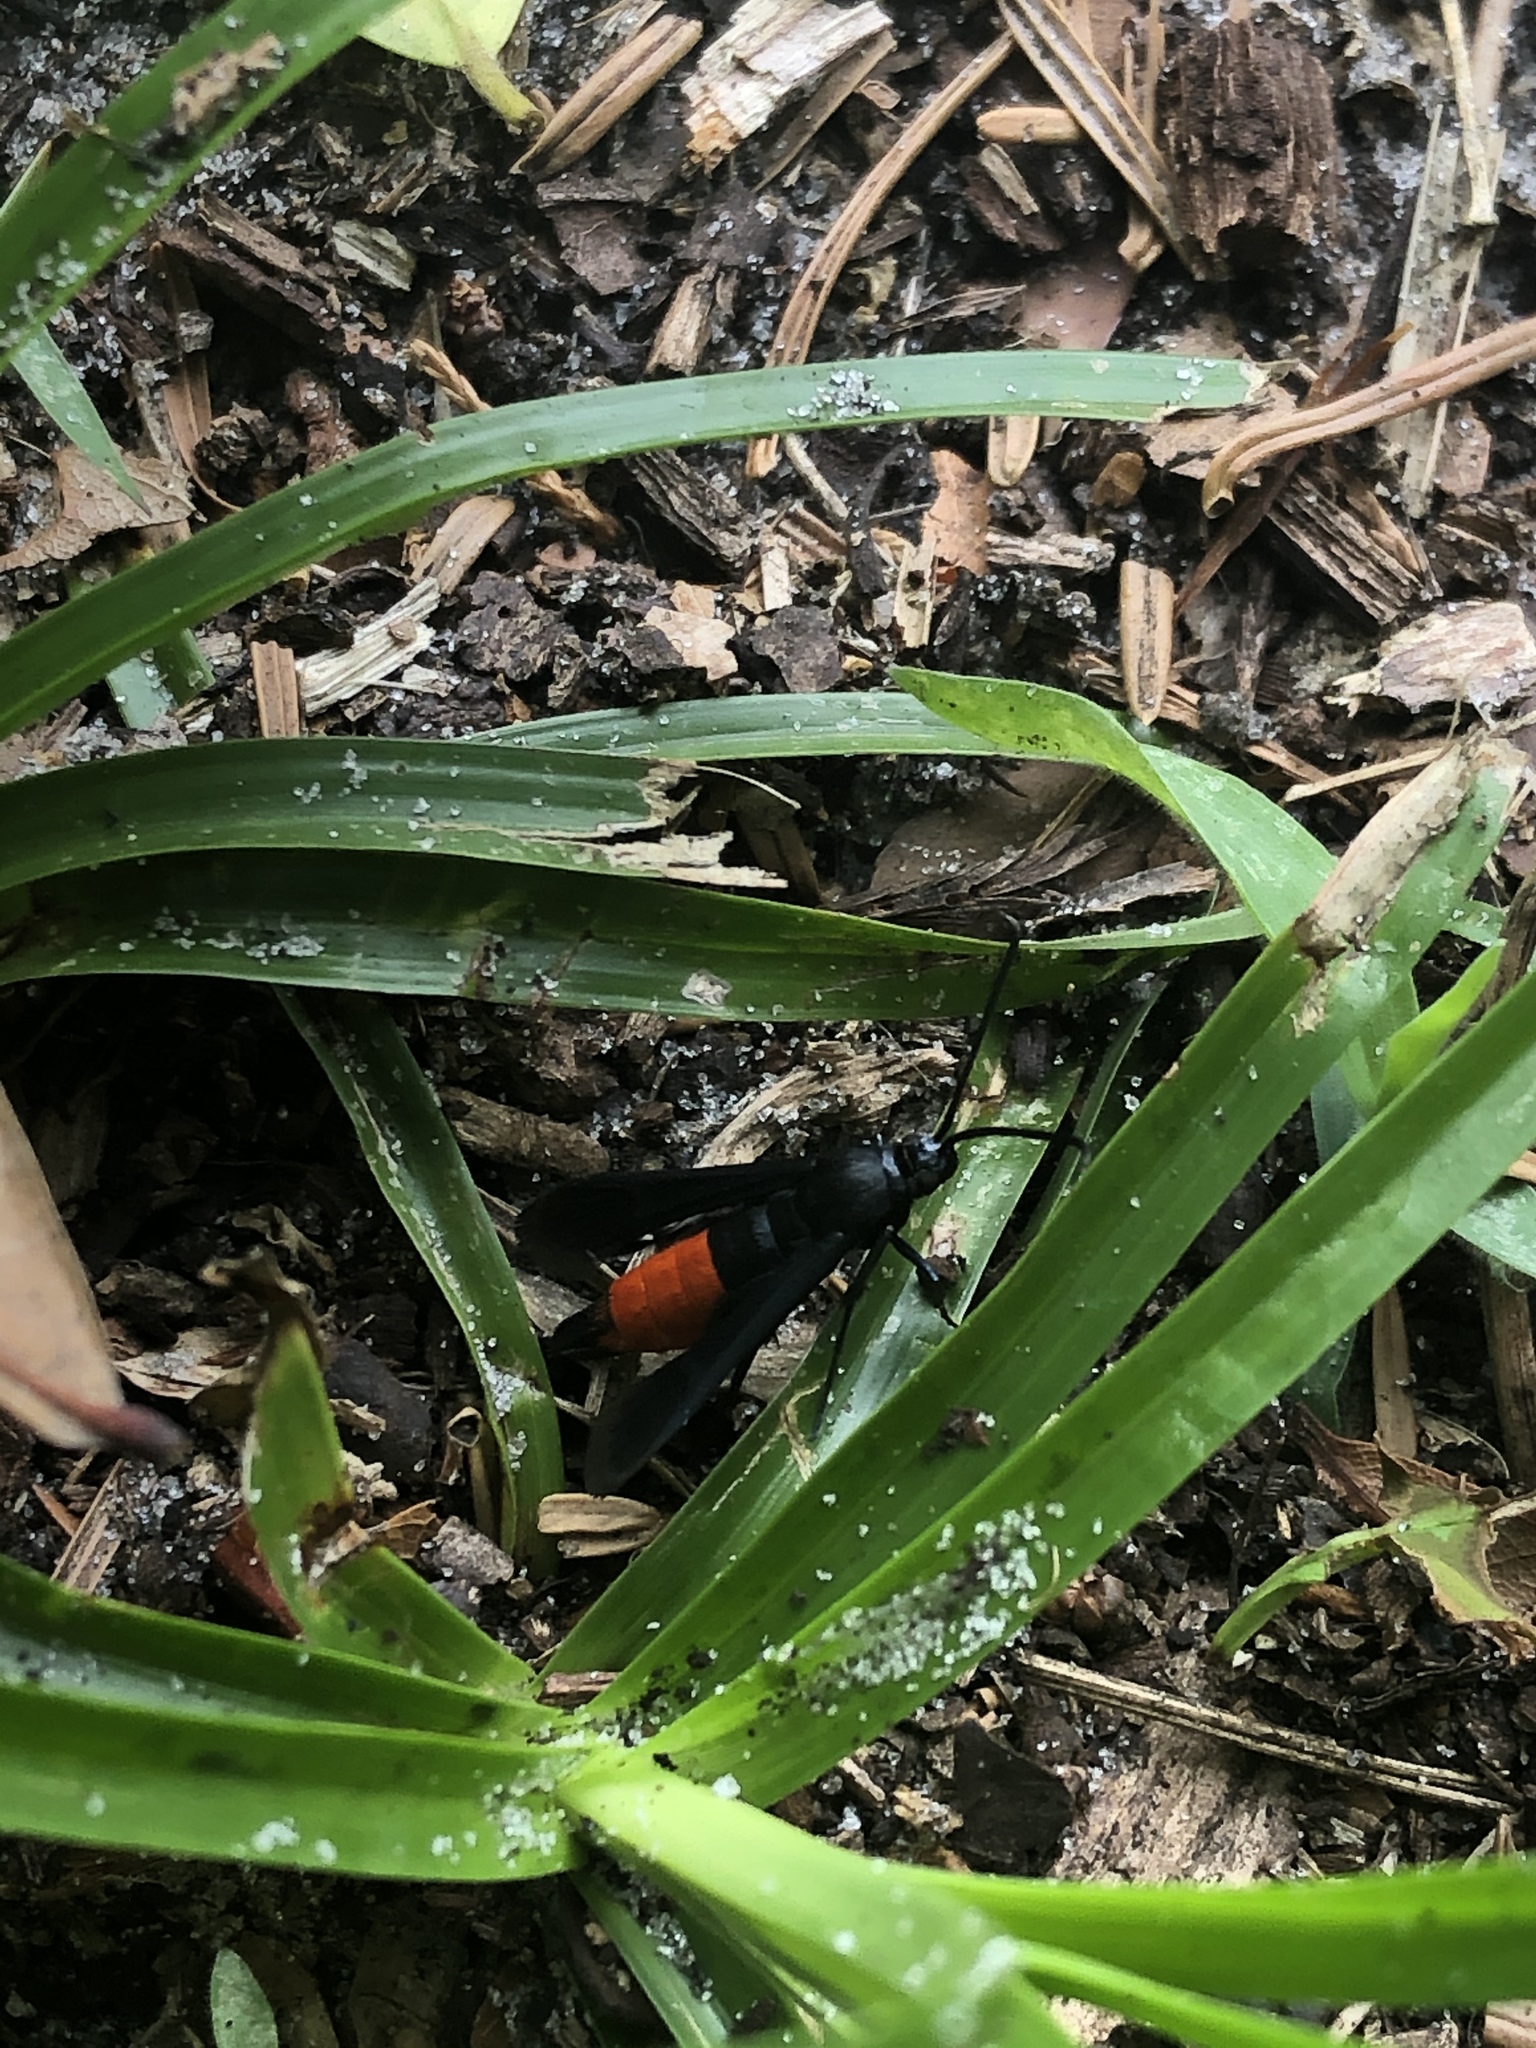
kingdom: Animalia
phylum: Arthropoda
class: Insecta
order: Lepidoptera
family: Sesiidae
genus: Synanthedon
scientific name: Synanthedon rubrofascia
